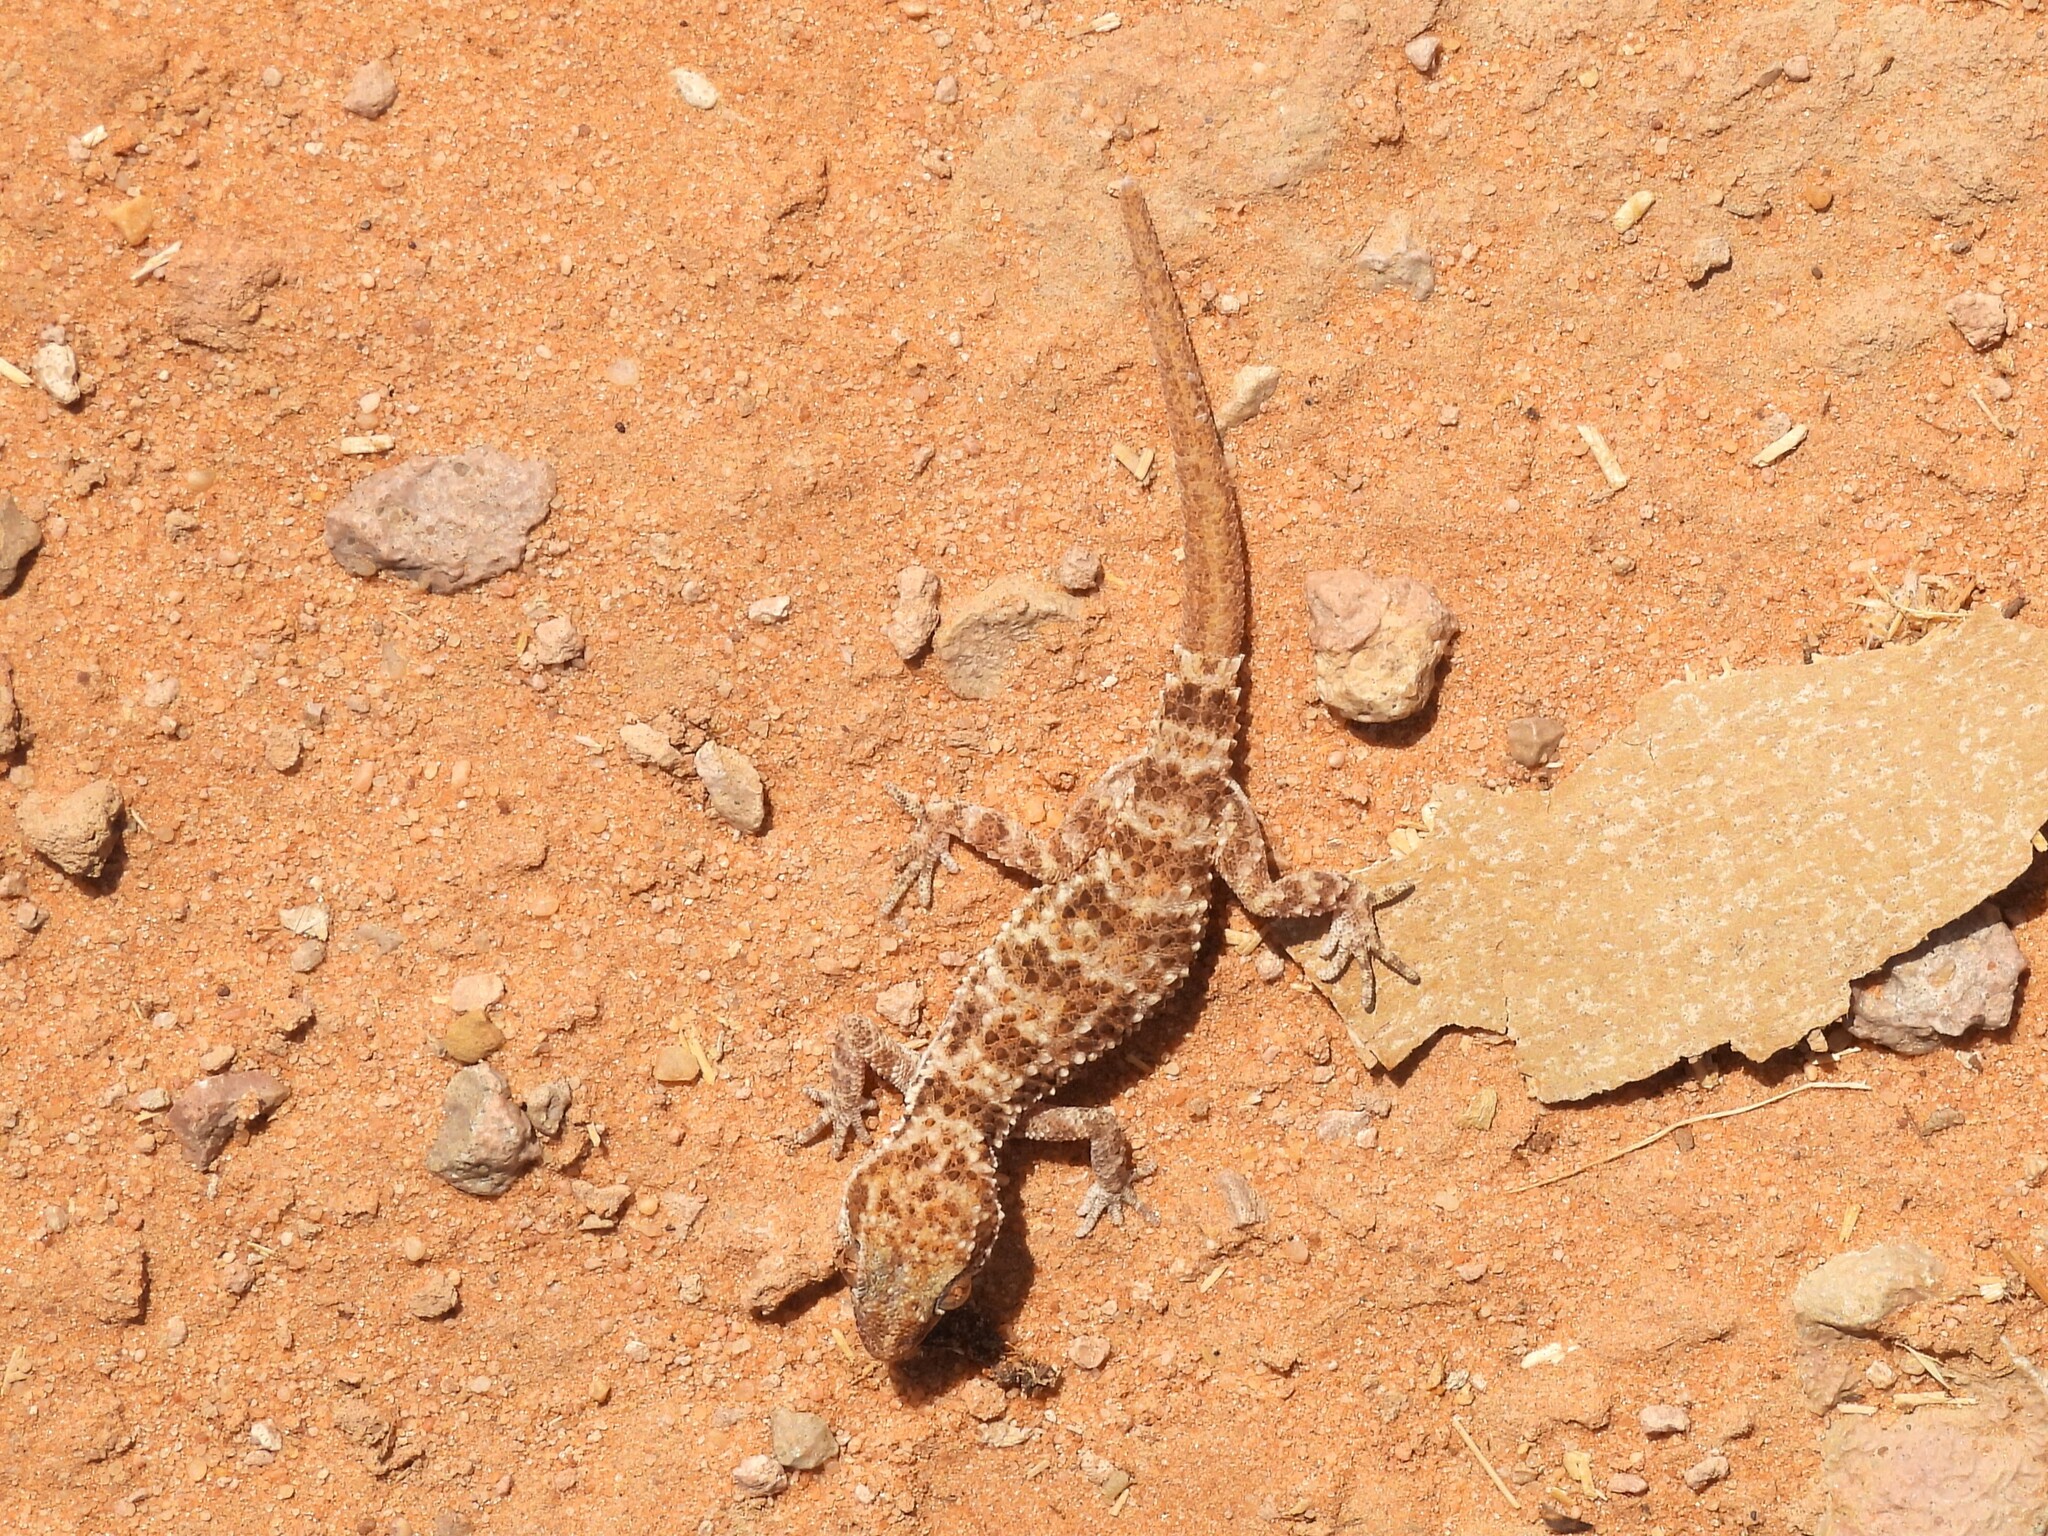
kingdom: Animalia
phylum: Chordata
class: Squamata
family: Gekkonidae
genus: Bunopus
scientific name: Bunopus tuberculatus
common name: Southern tuberculated gecko
